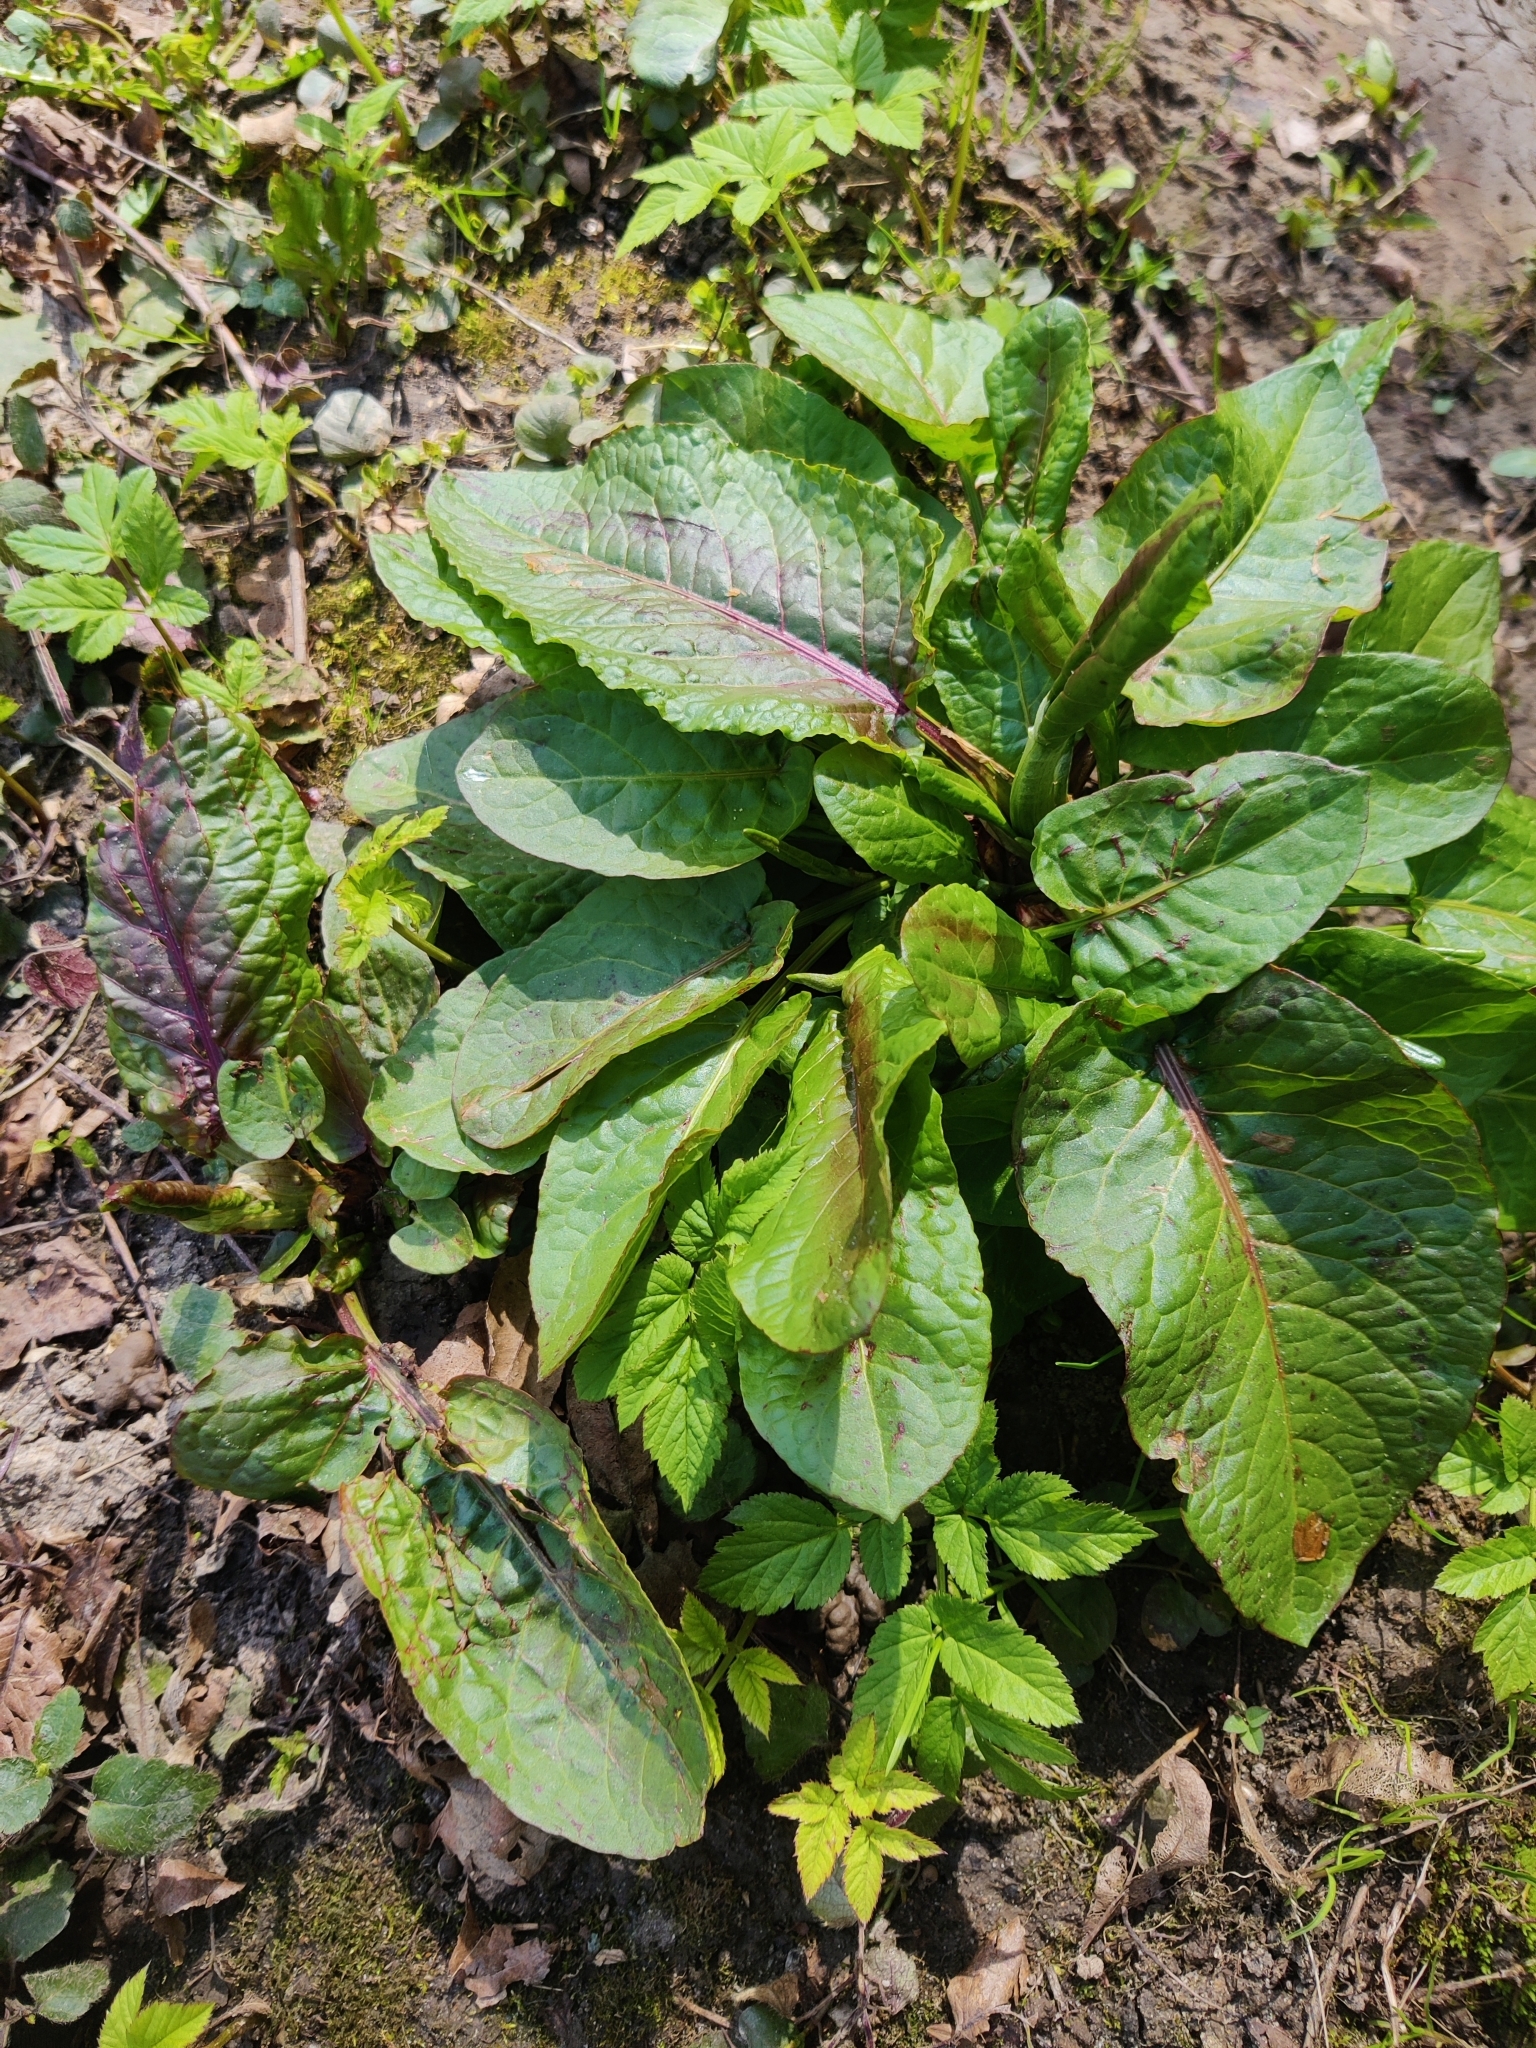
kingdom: Plantae
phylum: Tracheophyta
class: Magnoliopsida
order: Caryophyllales
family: Polygonaceae
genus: Rumex
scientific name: Rumex obtusifolius
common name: Bitter dock
